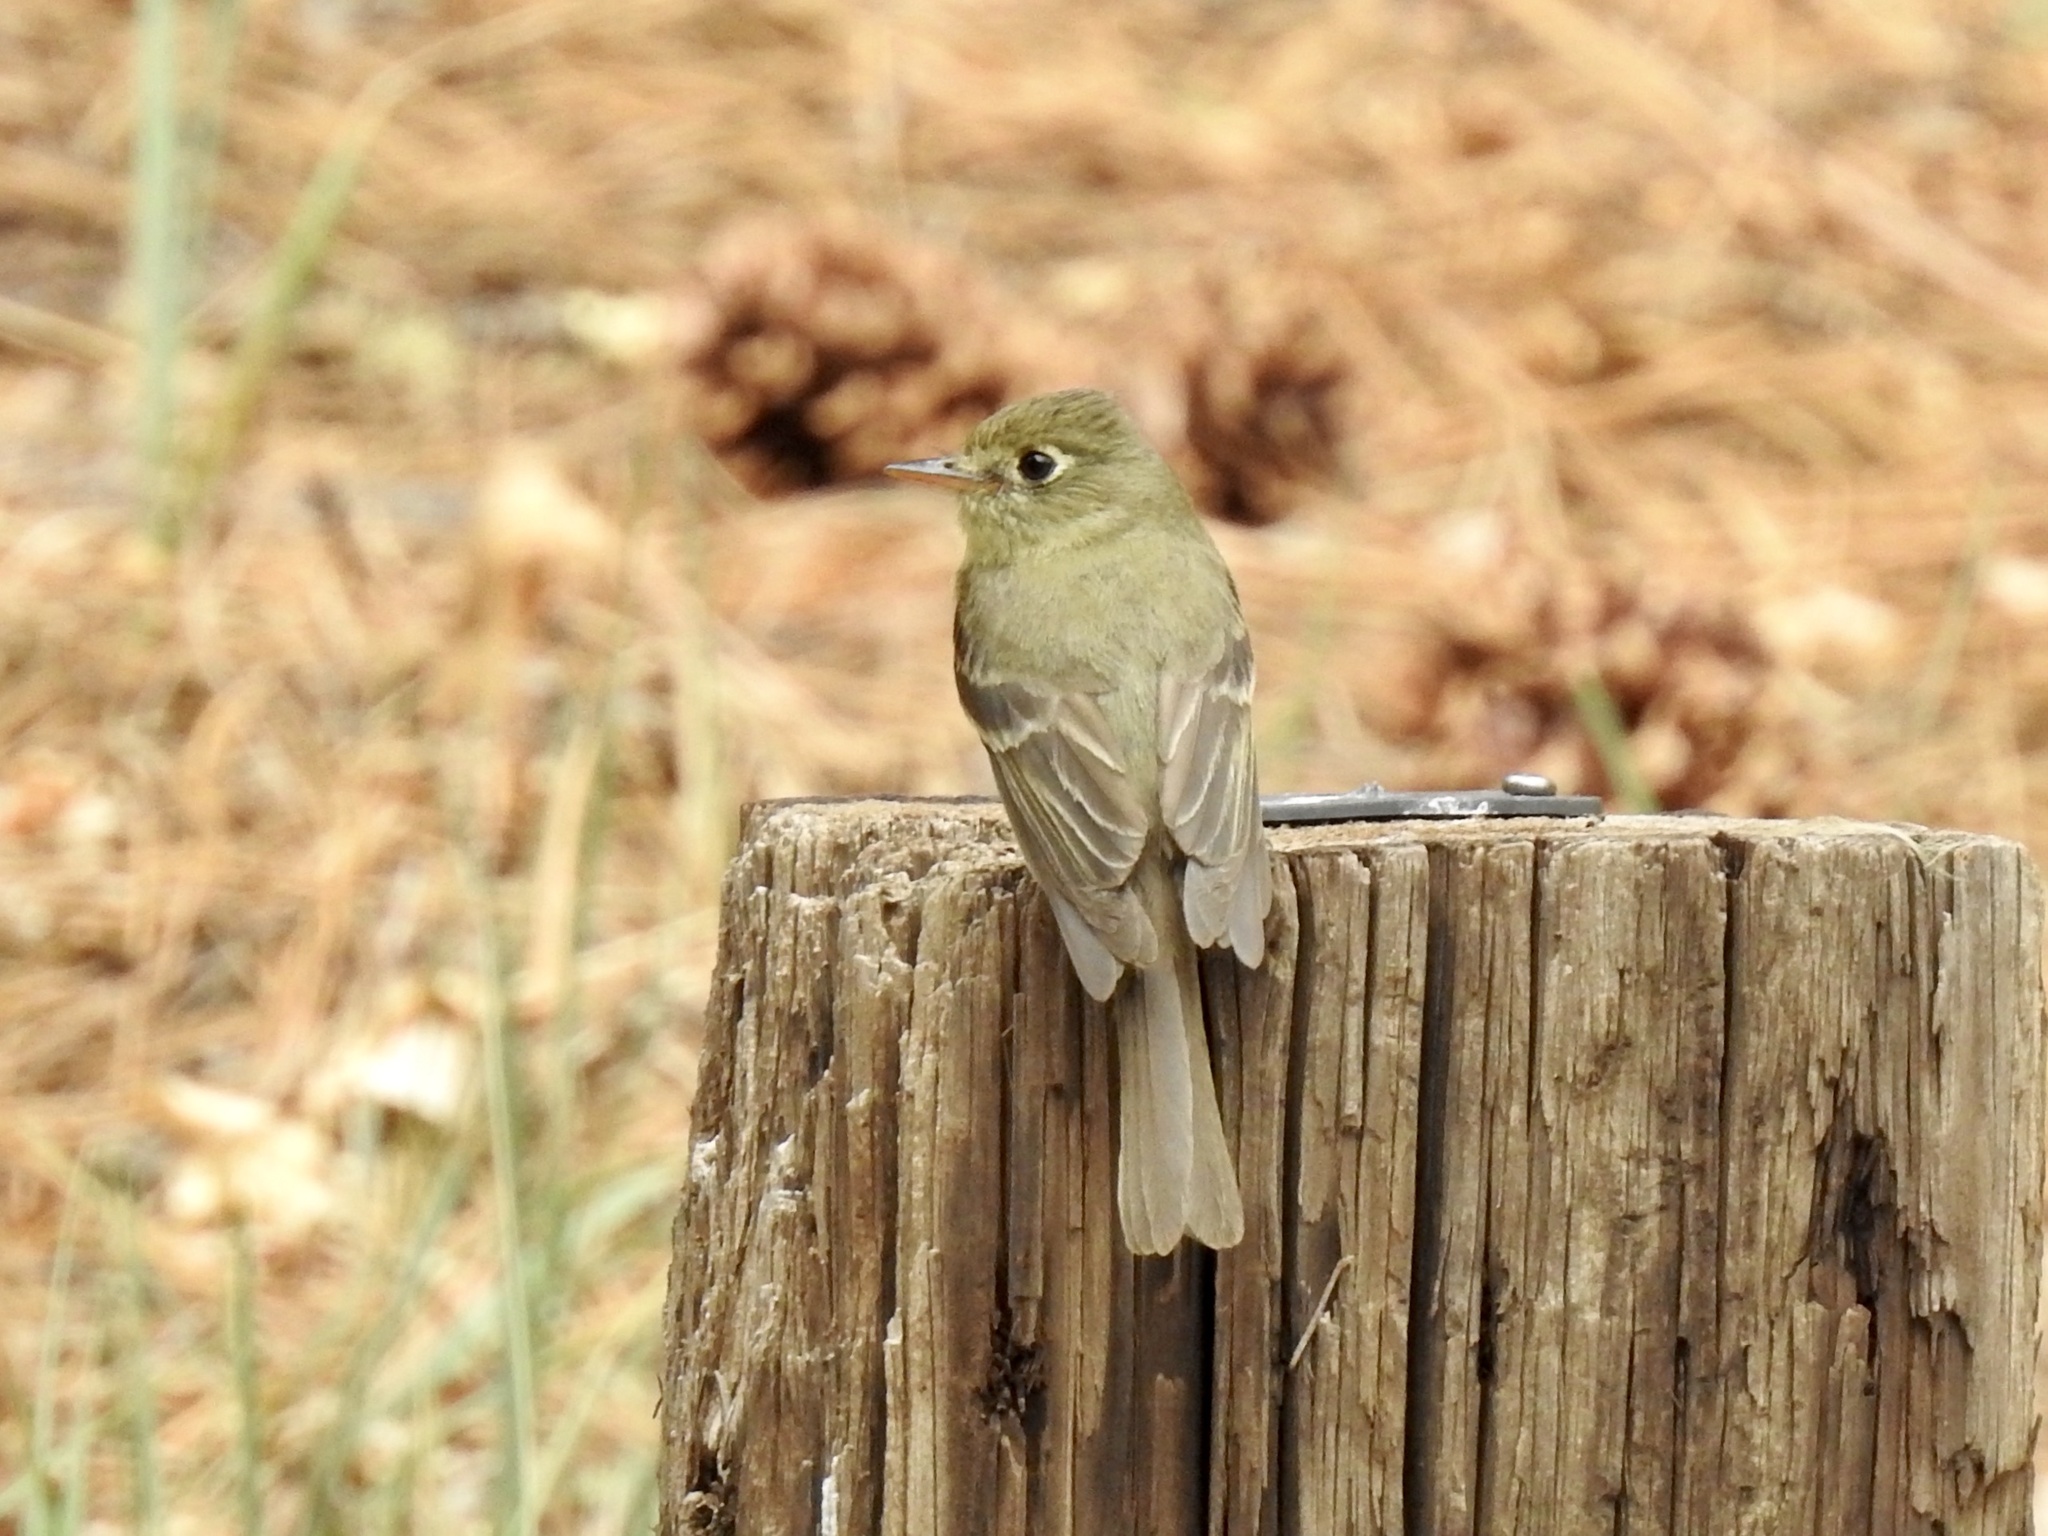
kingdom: Animalia
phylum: Chordata
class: Aves
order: Passeriformes
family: Tyrannidae
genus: Empidonax
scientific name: Empidonax difficilis
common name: Pacific-slope flycatcher
